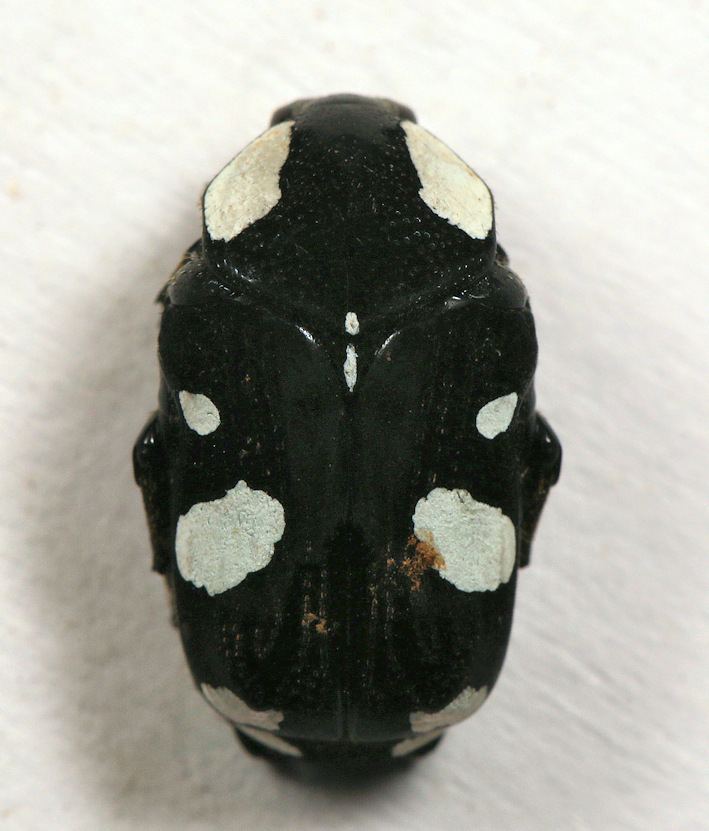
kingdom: Animalia
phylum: Arthropoda
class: Insecta
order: Coleoptera
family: Scarabaeidae
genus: Discopeltis
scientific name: Discopeltis tricolor
